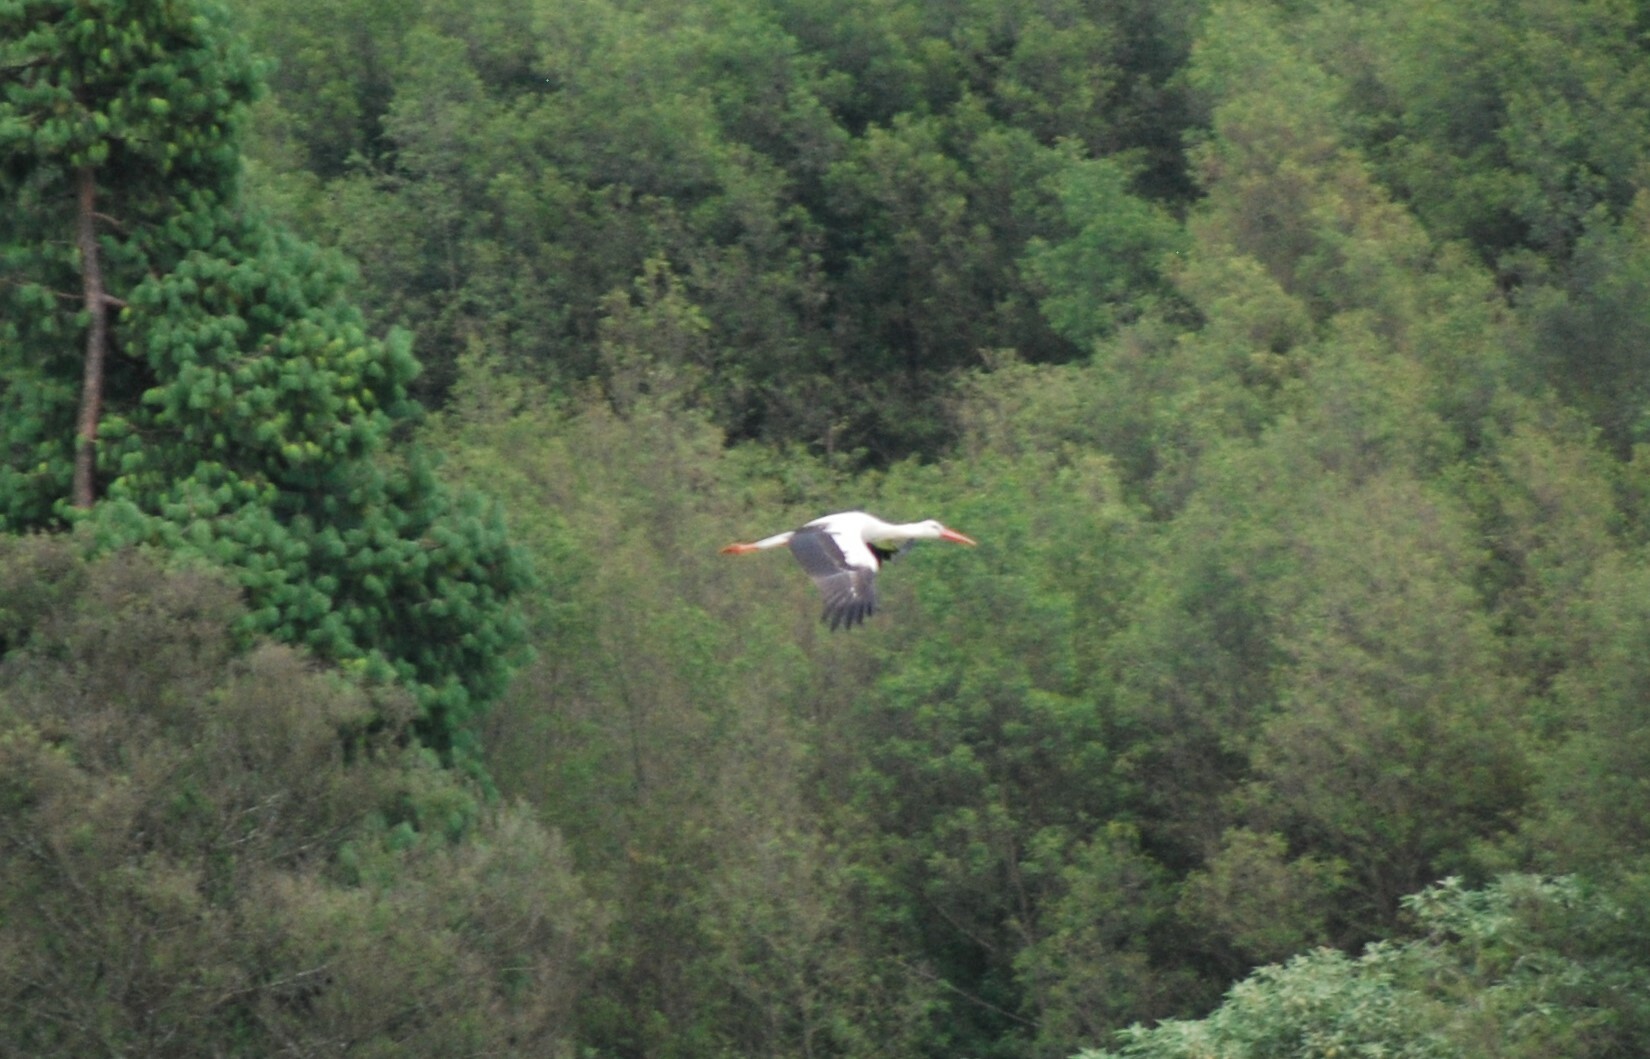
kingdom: Animalia
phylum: Chordata
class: Aves
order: Ciconiiformes
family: Ciconiidae
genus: Ciconia
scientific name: Ciconia ciconia
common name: White stork
